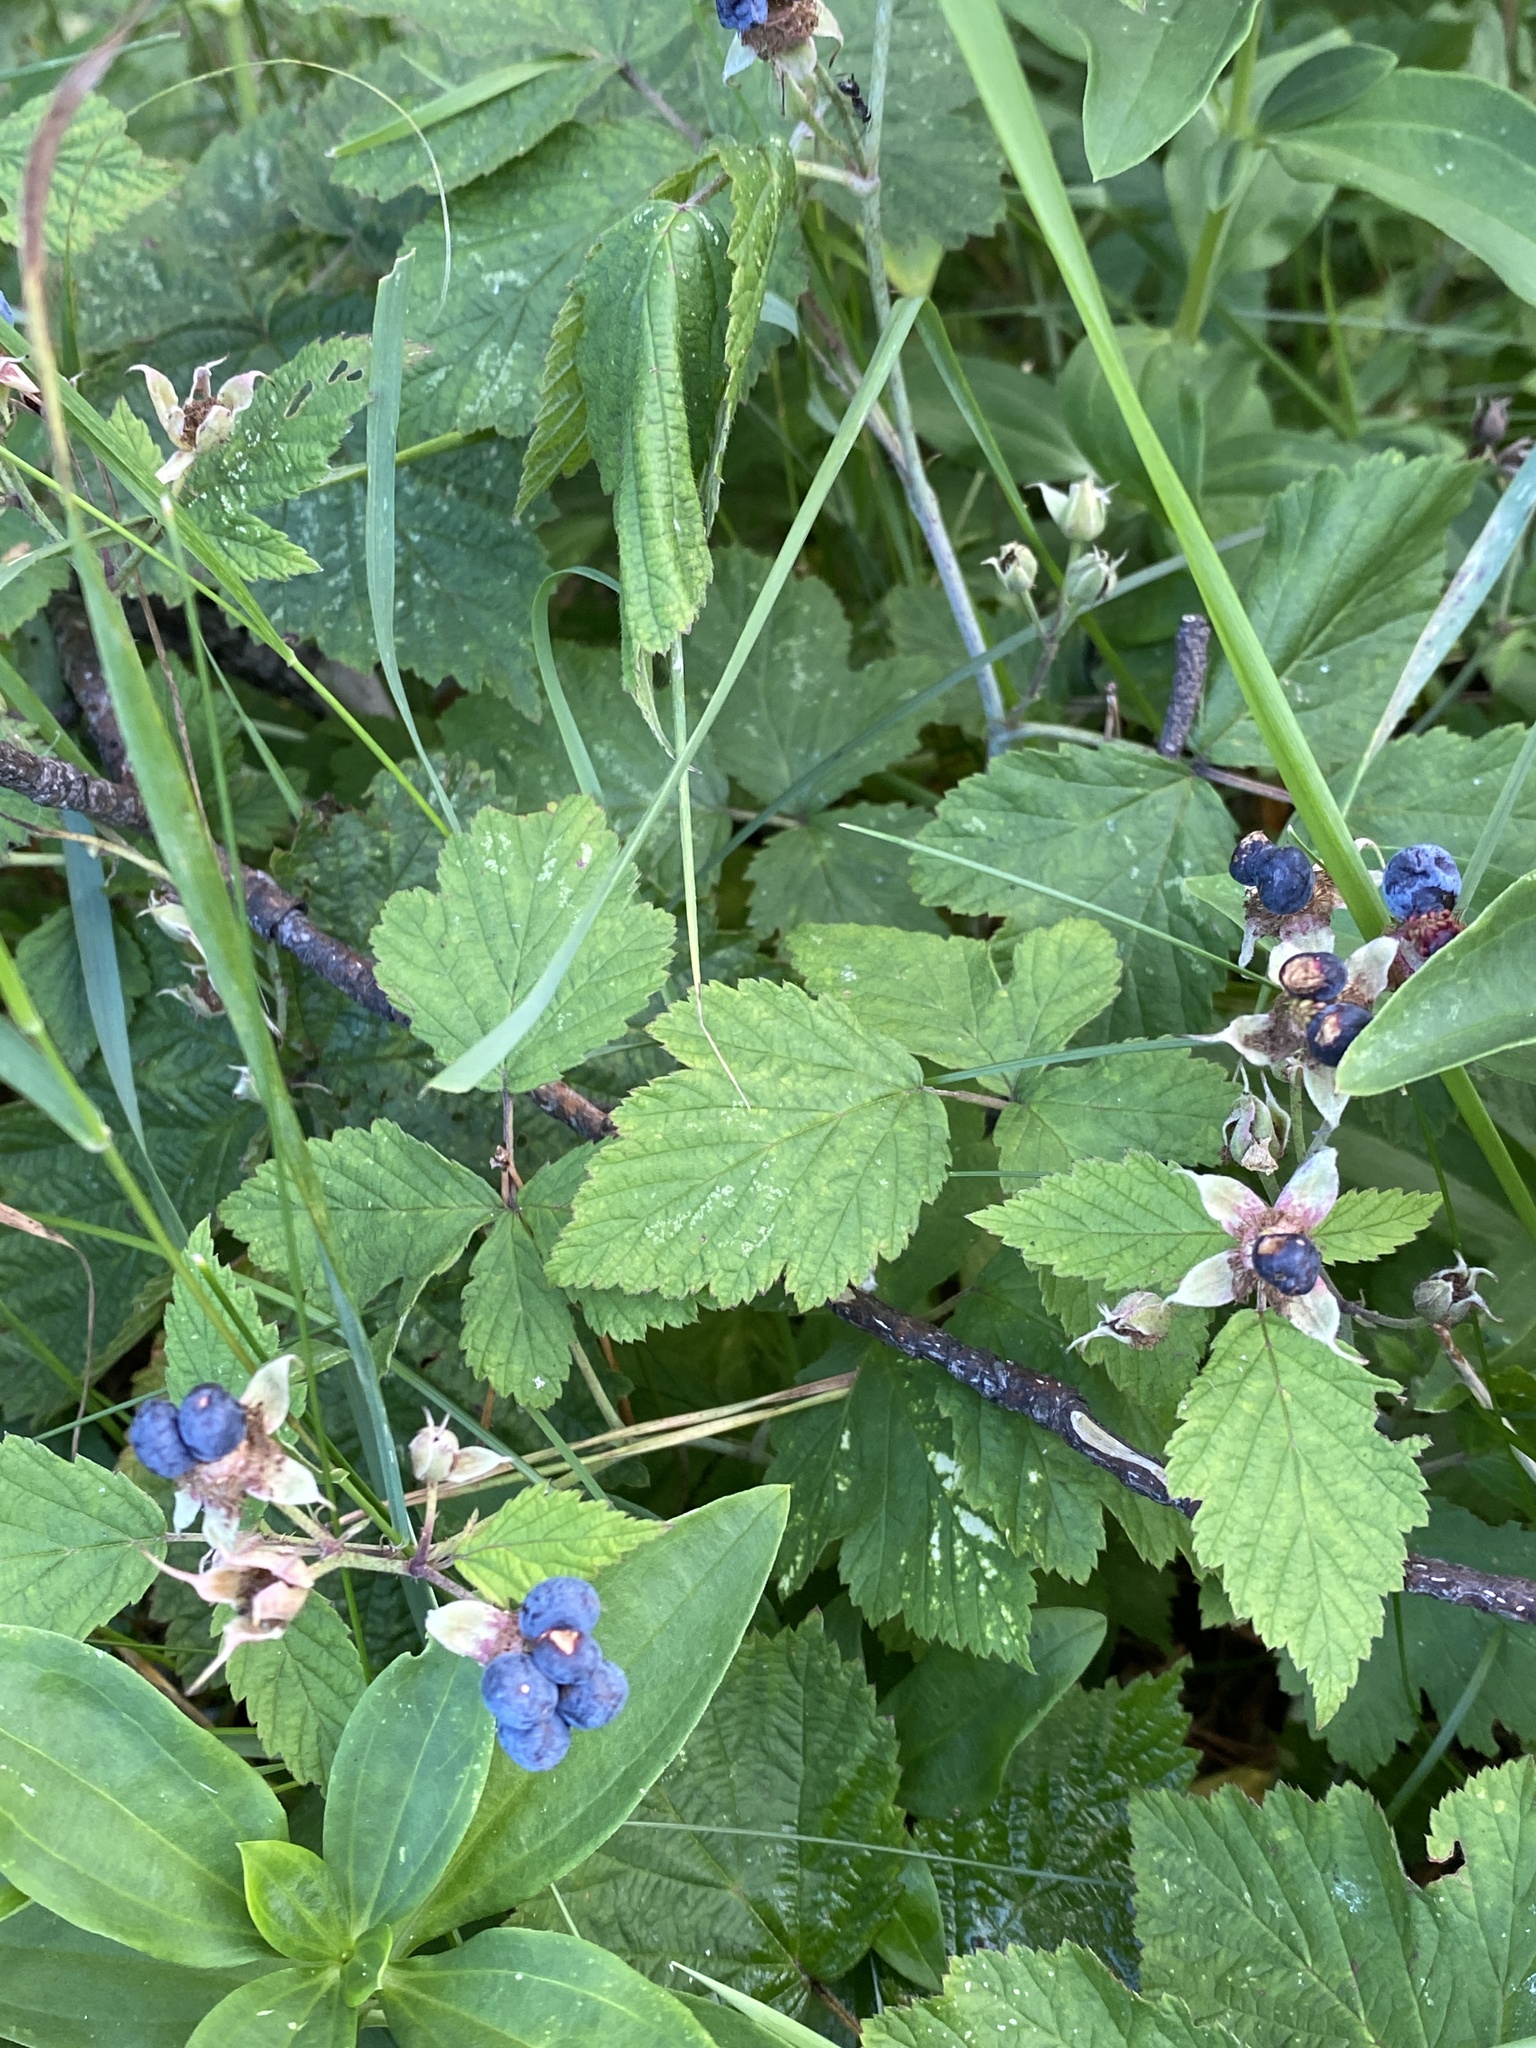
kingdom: Plantae
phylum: Tracheophyta
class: Magnoliopsida
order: Rosales
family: Rosaceae
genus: Rubus
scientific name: Rubus caesius
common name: Dewberry
